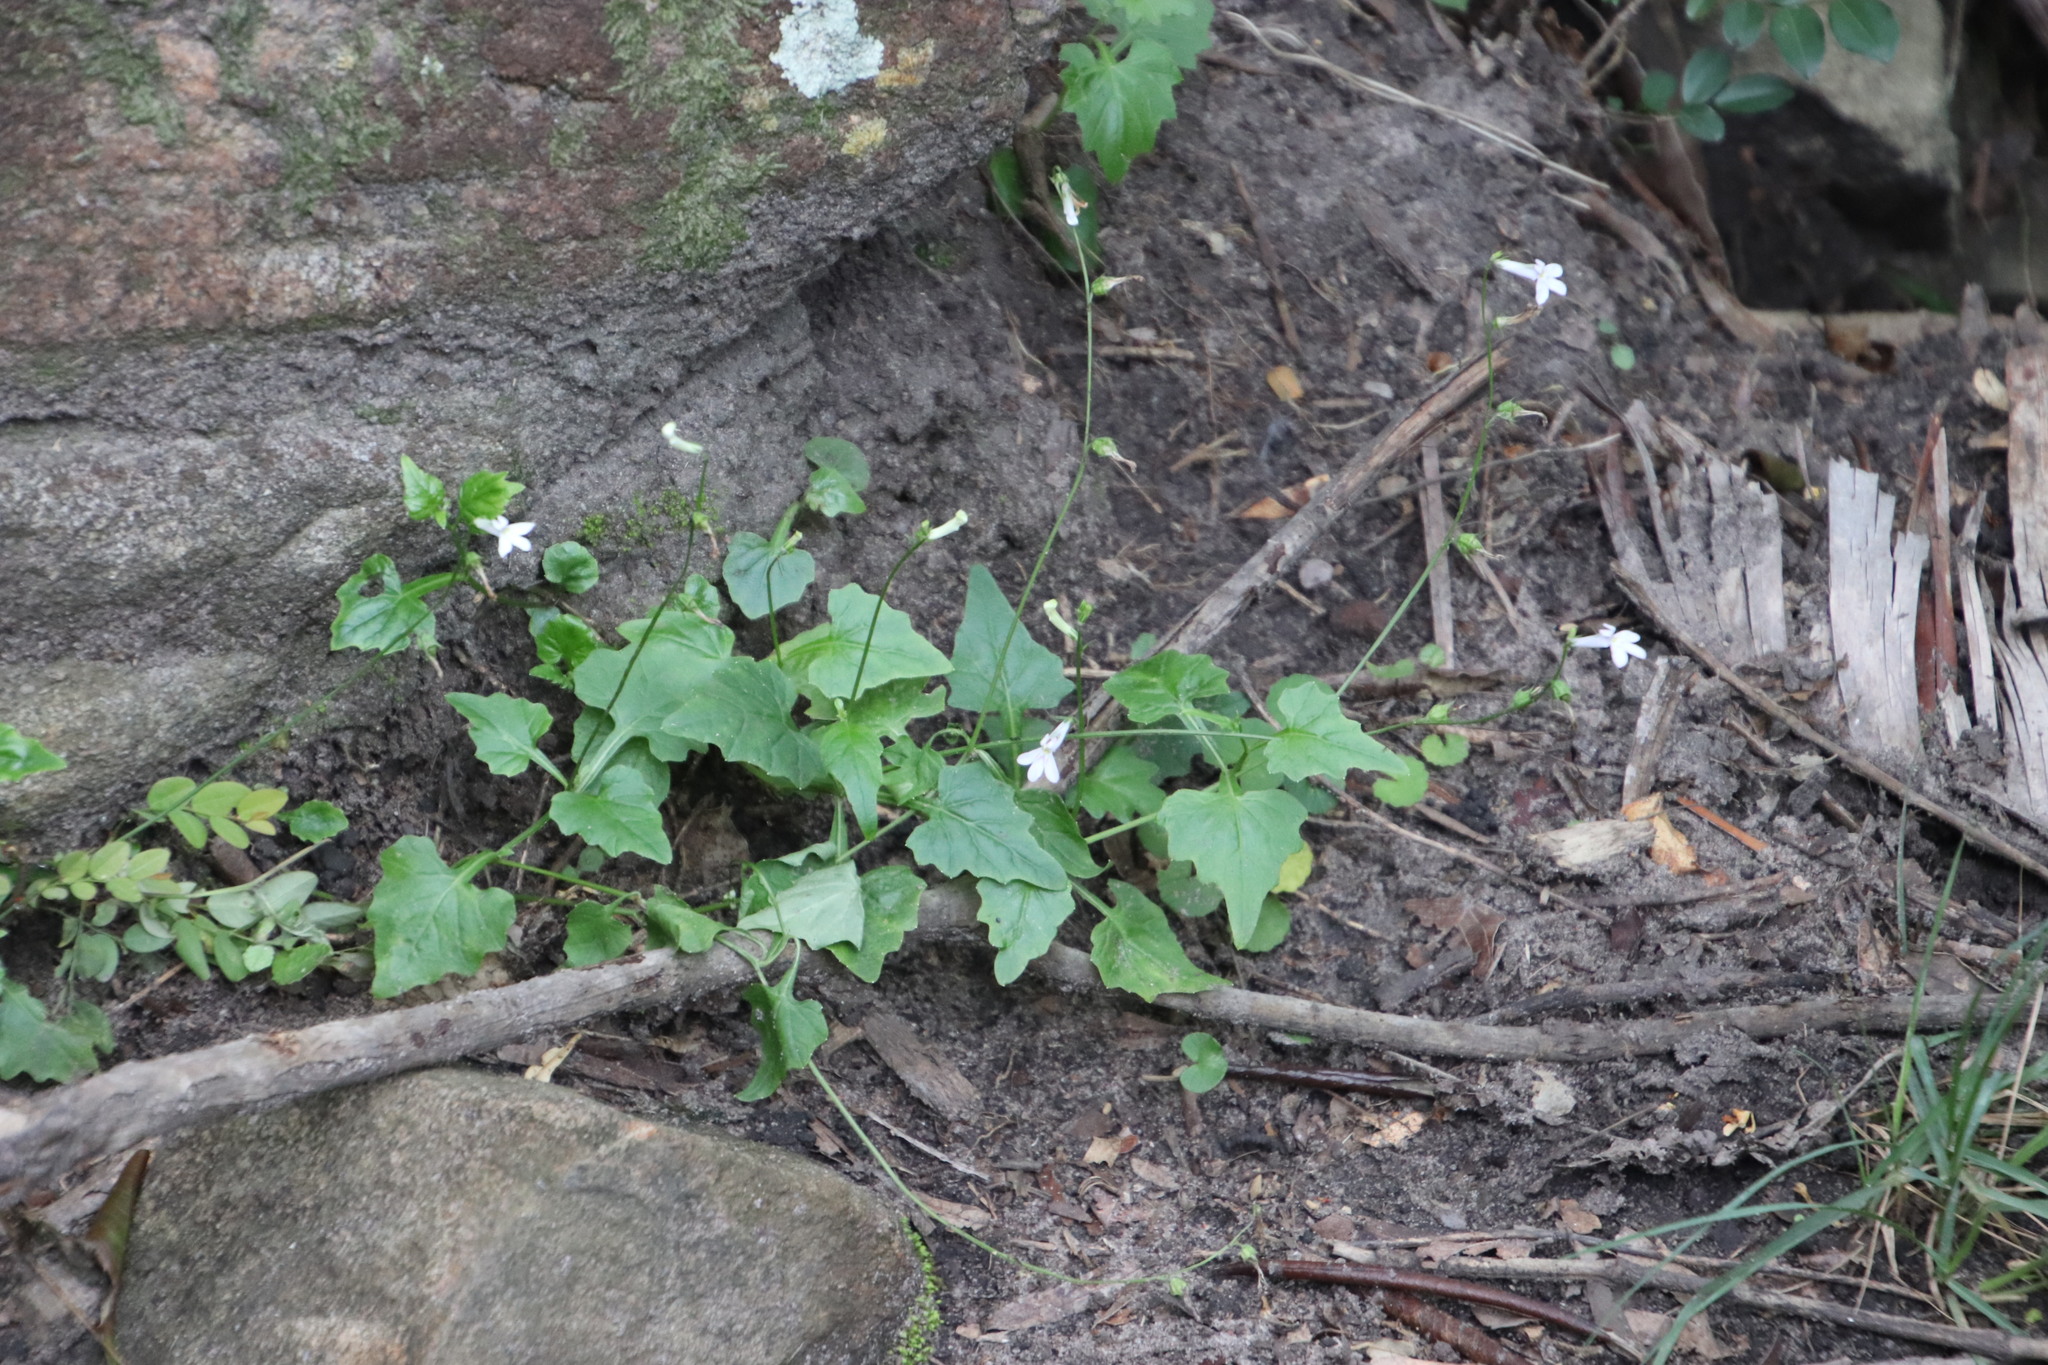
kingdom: Plantae
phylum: Tracheophyta
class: Magnoliopsida
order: Asterales
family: Campanulaceae
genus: Lobelia
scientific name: Lobelia pteropoda
